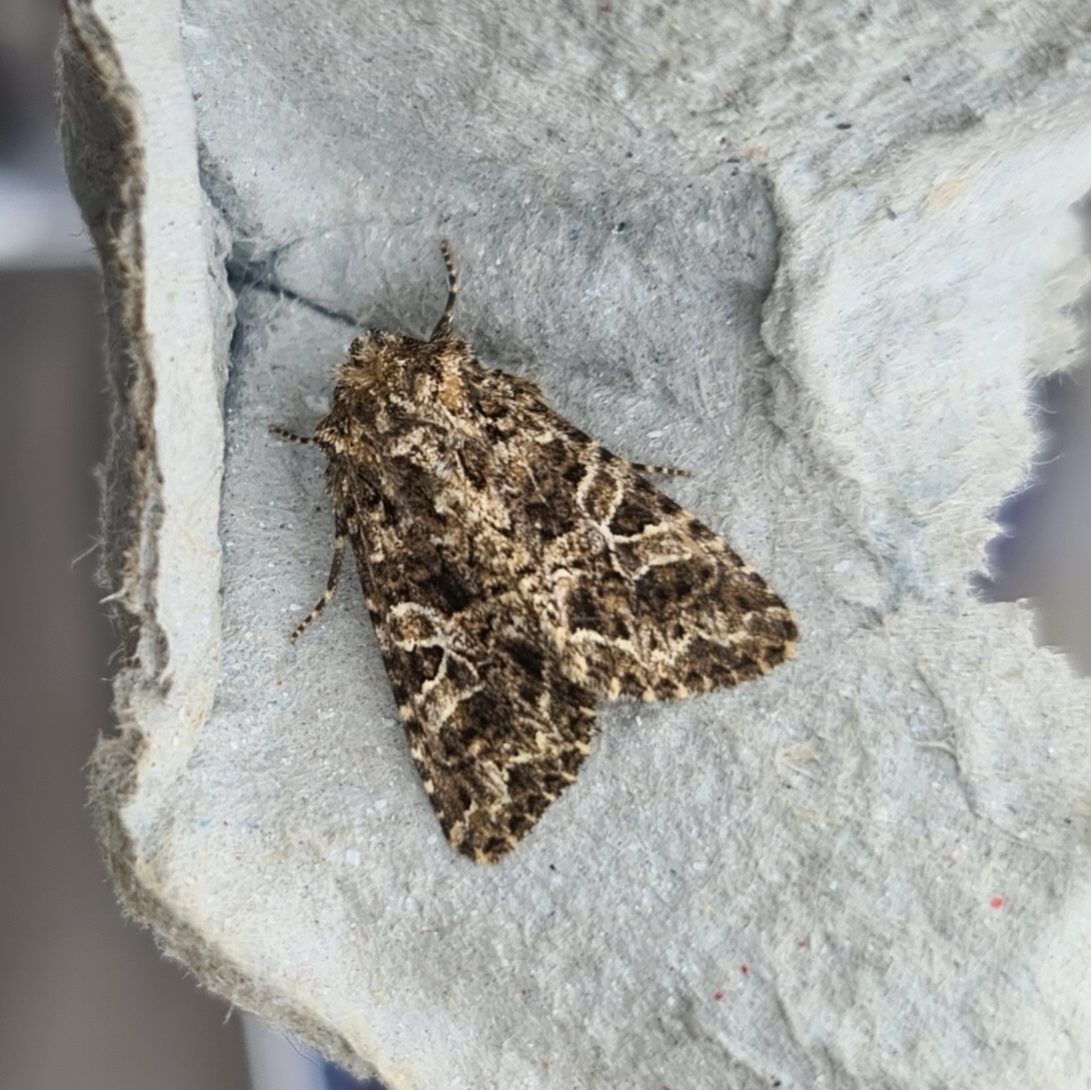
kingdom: Animalia
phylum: Arthropoda
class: Insecta
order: Lepidoptera
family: Noctuidae
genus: Hadena
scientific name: Hadena bicruris
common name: Lychnis
